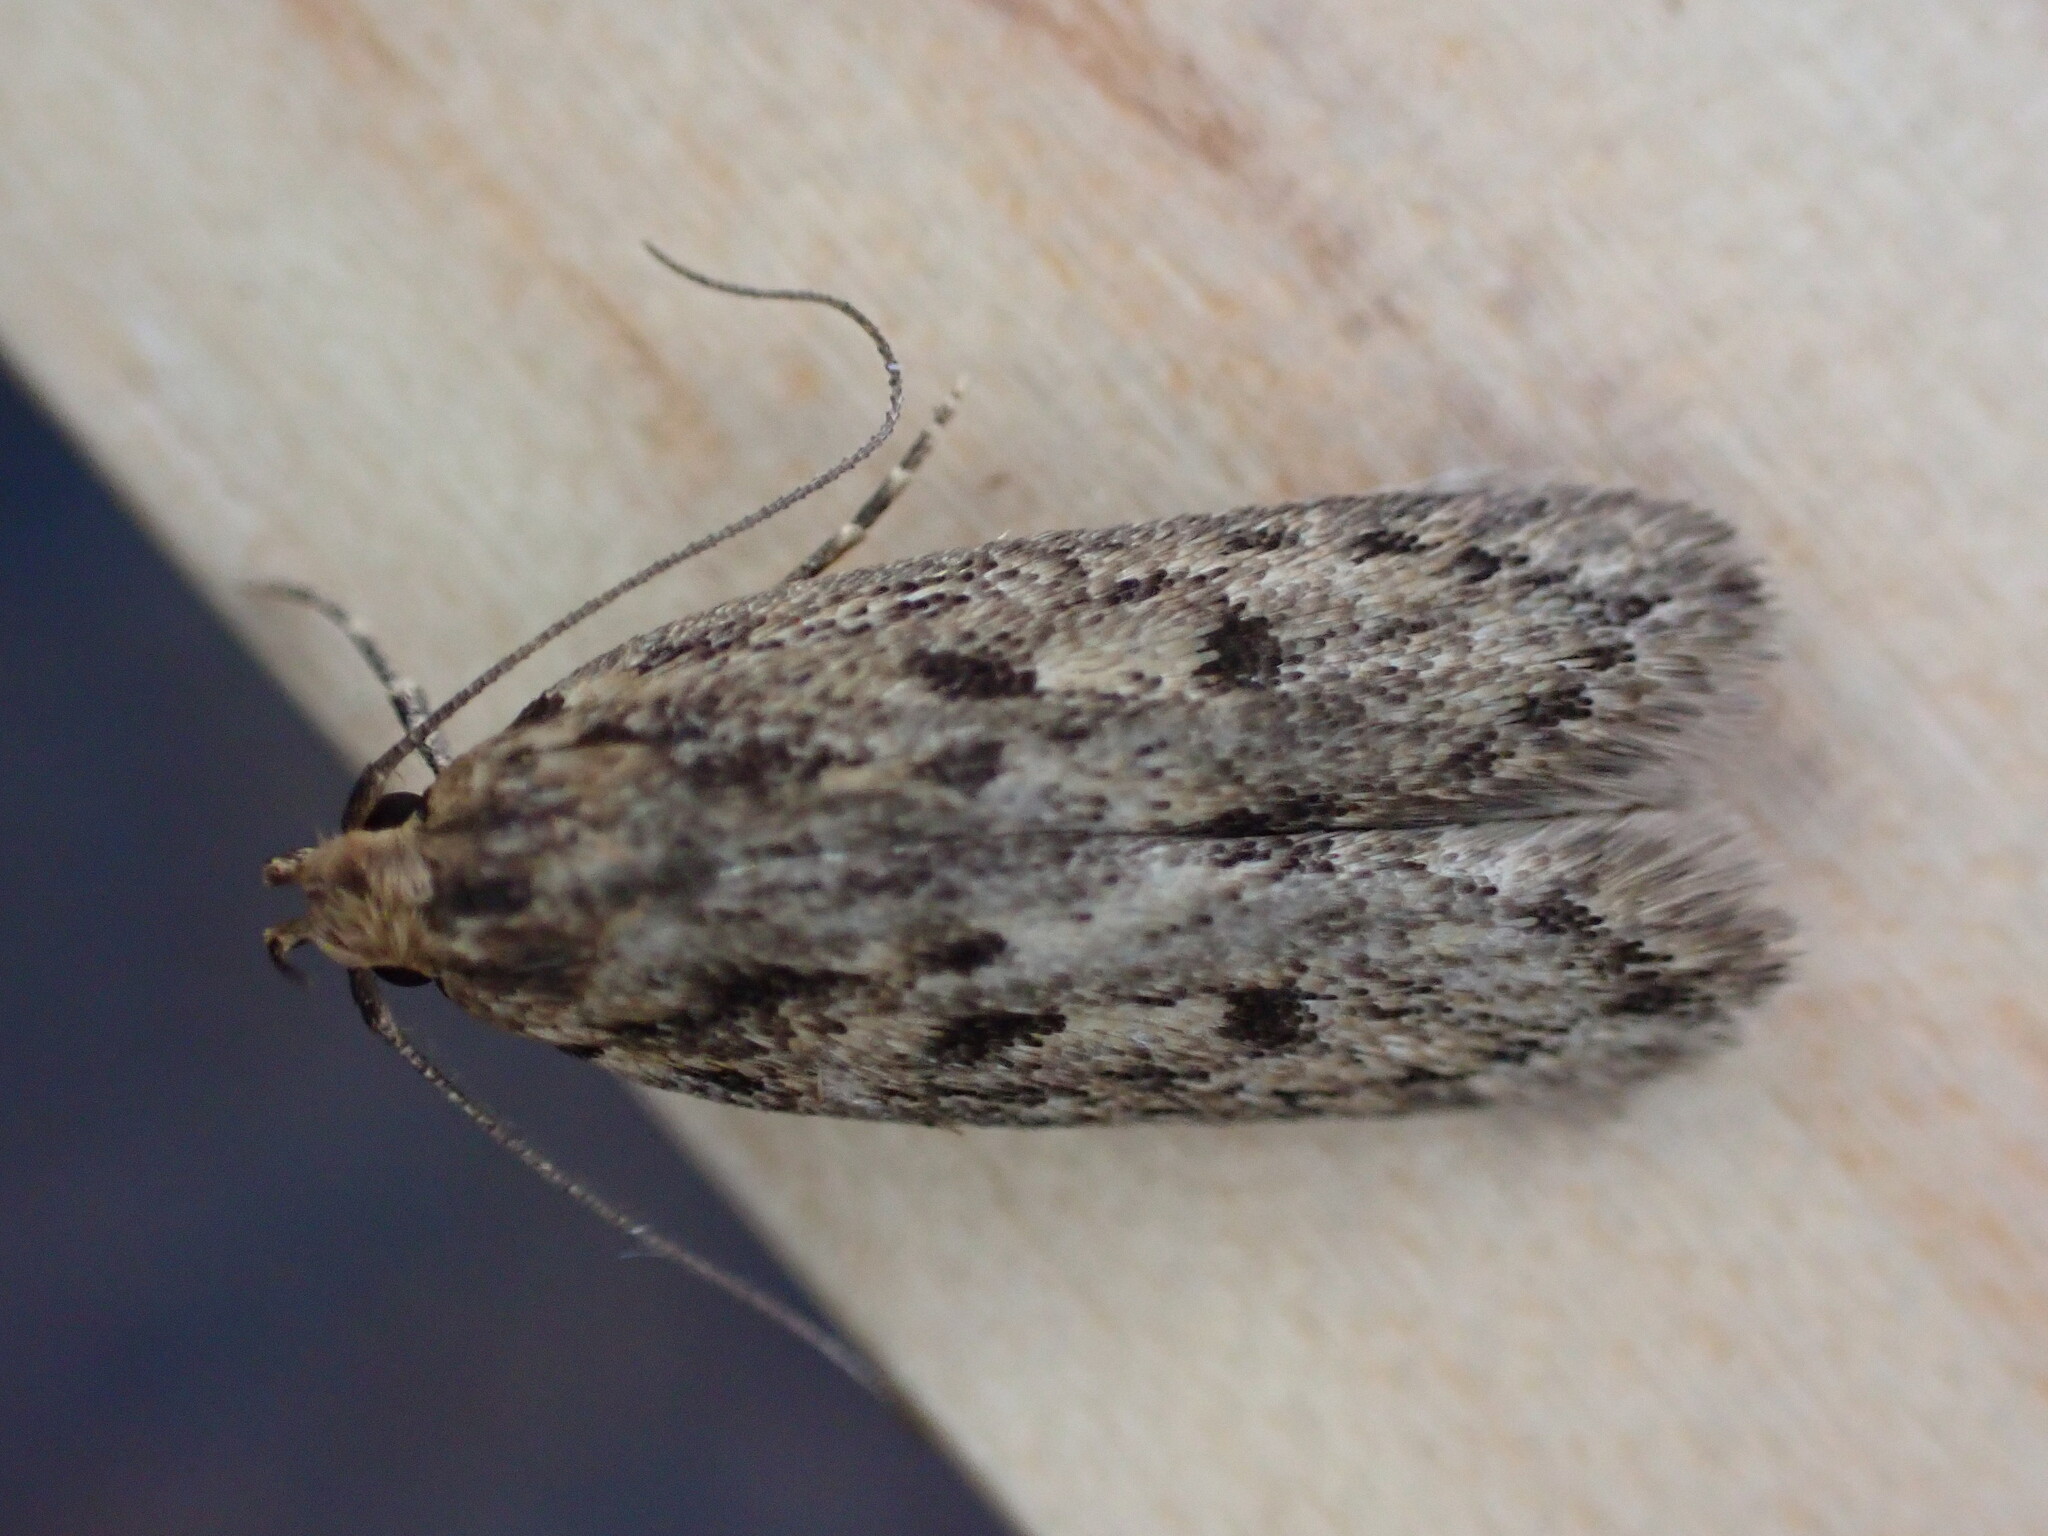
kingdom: Animalia
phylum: Arthropoda
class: Insecta
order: Lepidoptera
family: Oecophoridae
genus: Hofmannophila
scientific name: Hofmannophila pseudospretella
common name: Brown house moth
